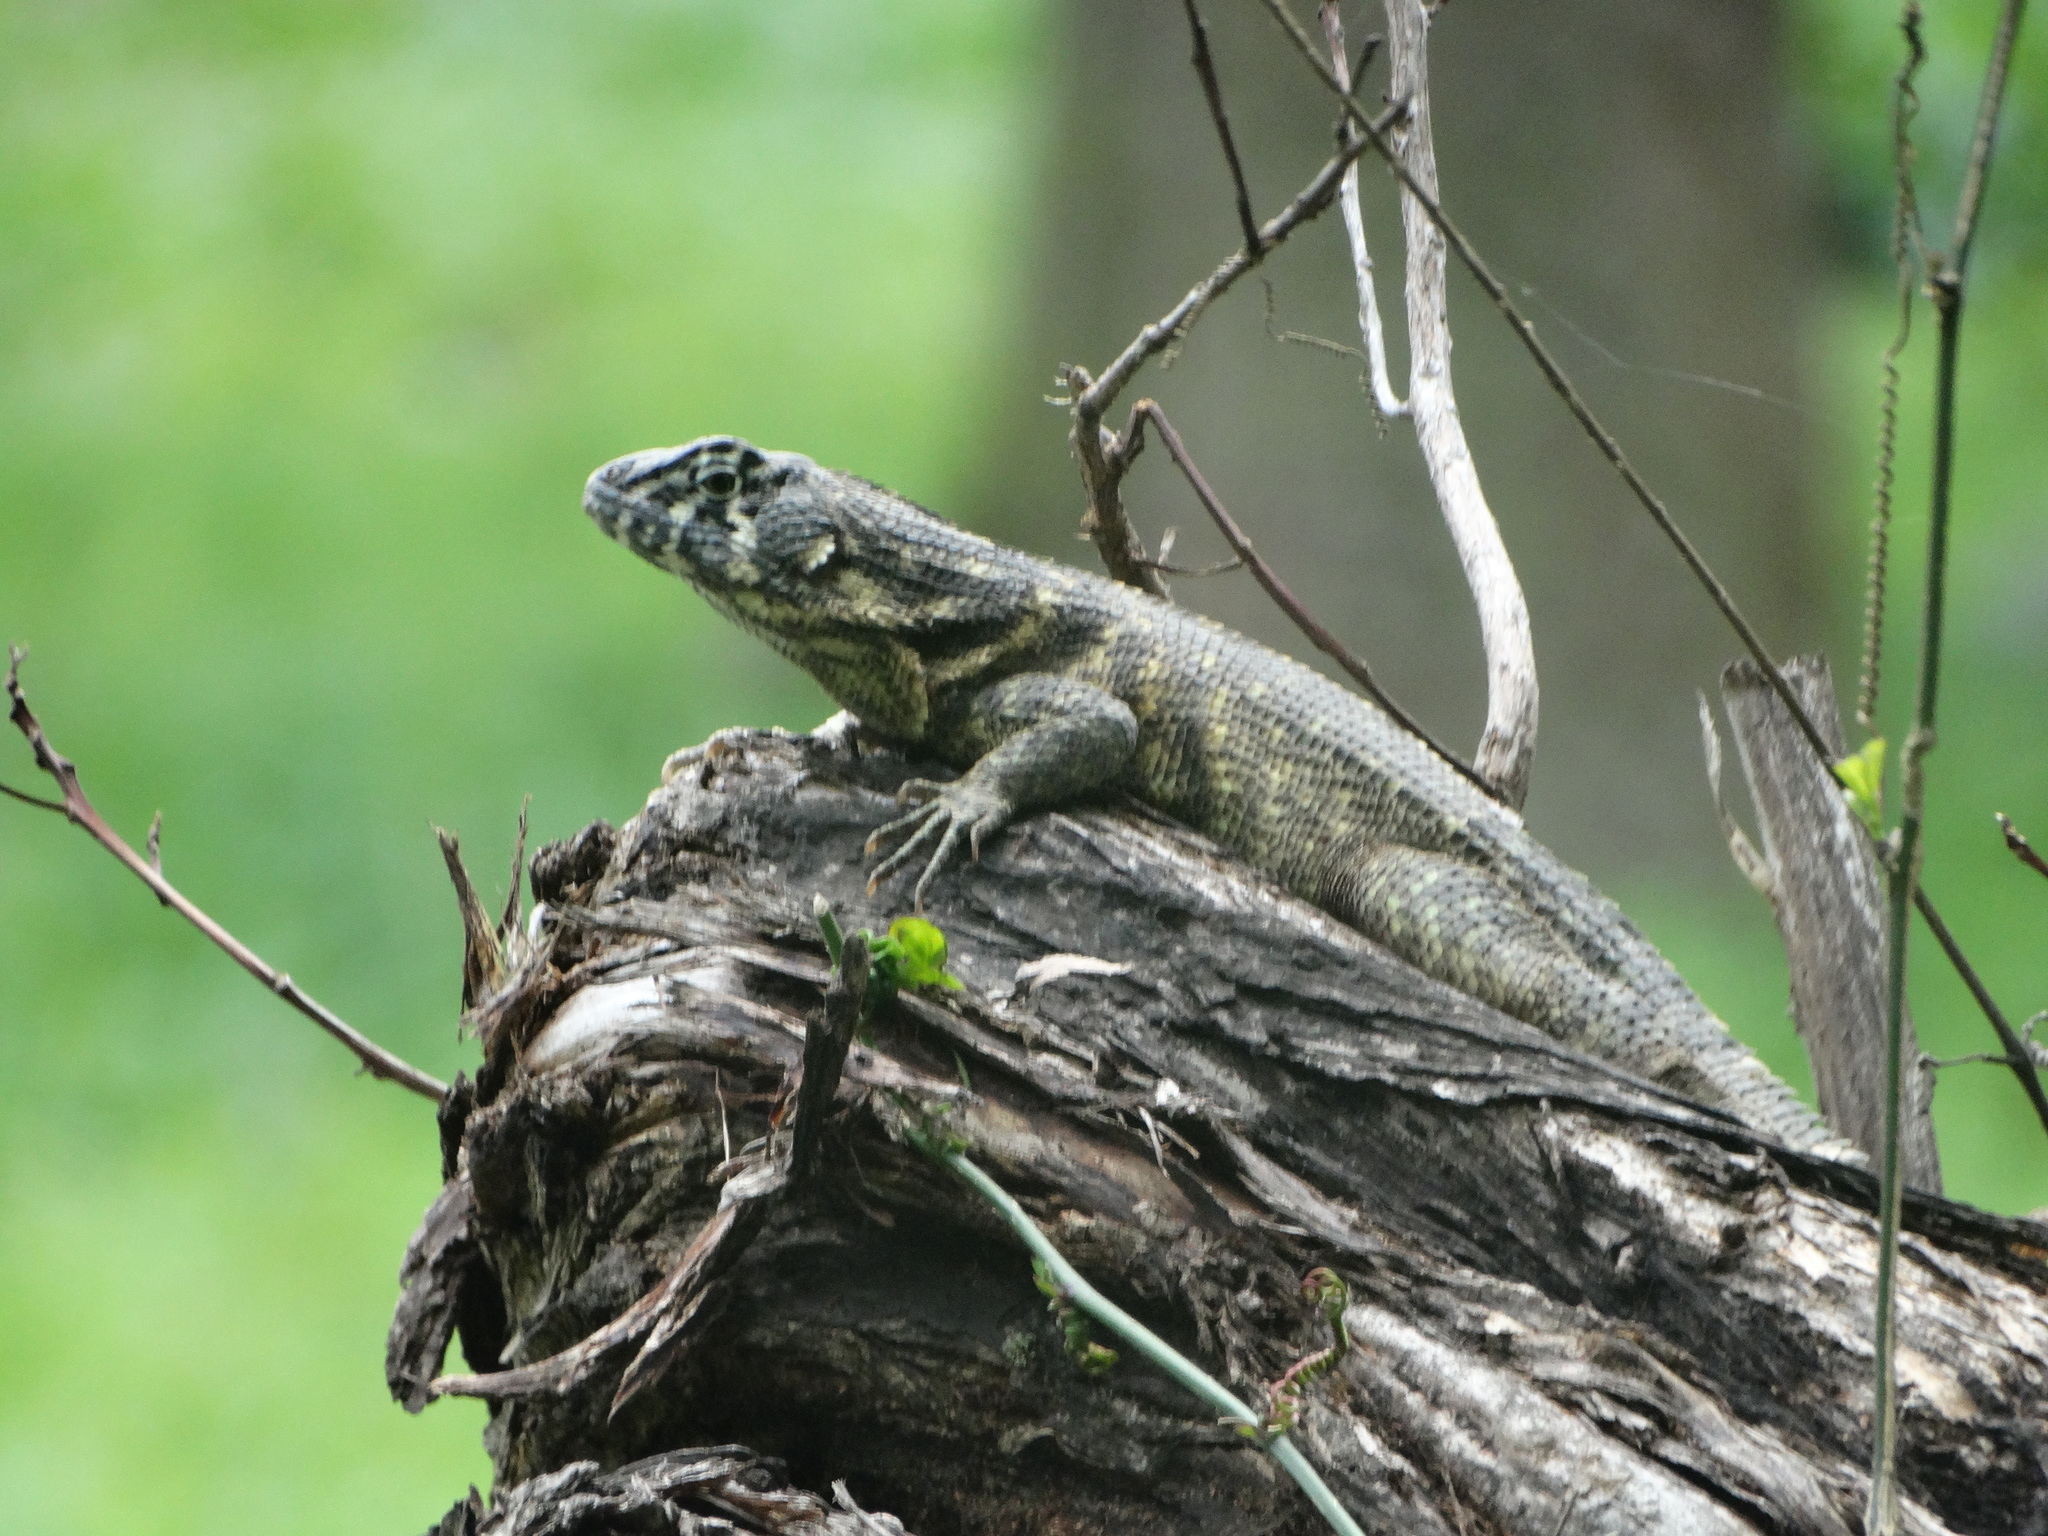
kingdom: Animalia
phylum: Chordata
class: Squamata
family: Leiocephalidae
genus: Leiocephalus
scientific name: Leiocephalus carinatus
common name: Northern curly-tailed lizard
